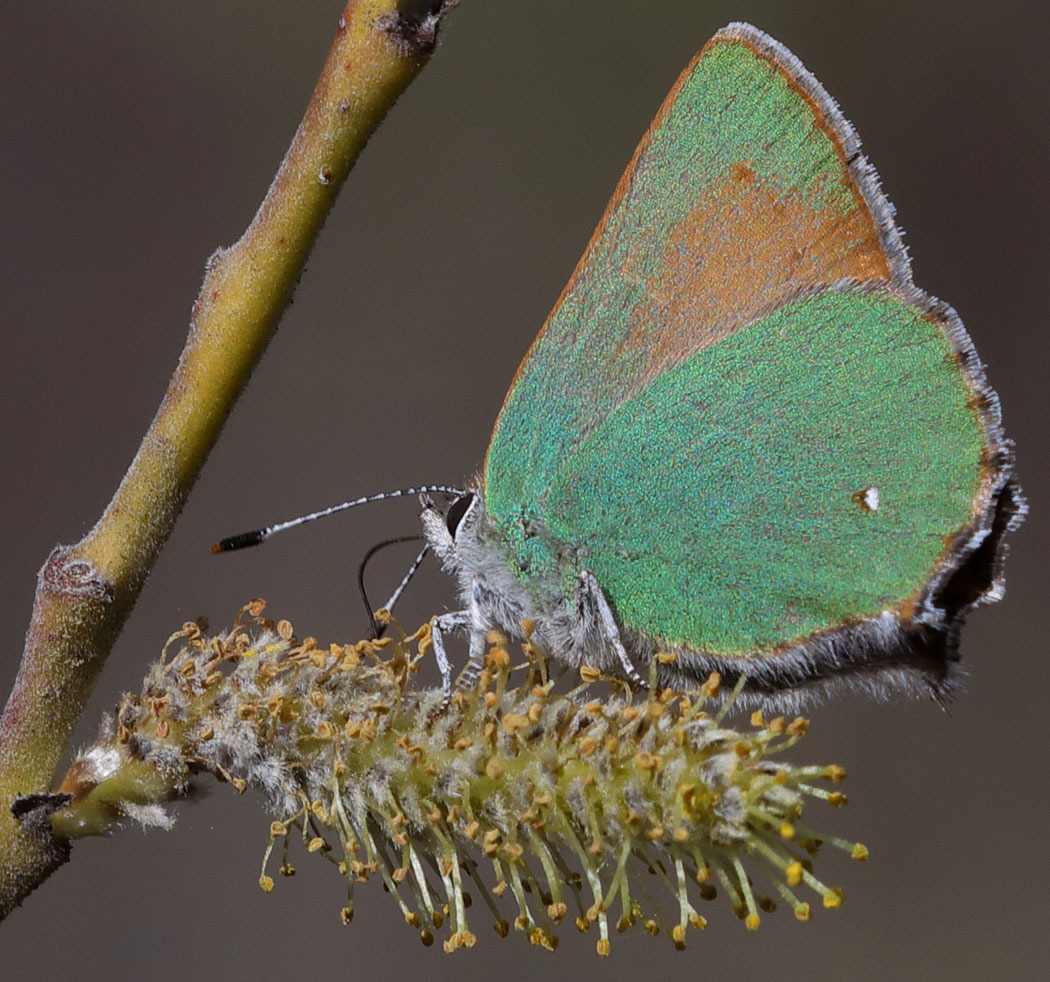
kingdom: Animalia
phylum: Arthropoda
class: Insecta
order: Lepidoptera
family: Lycaenidae
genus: Callophrys
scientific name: Callophrys dumetorum
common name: Bramble hairstreak
